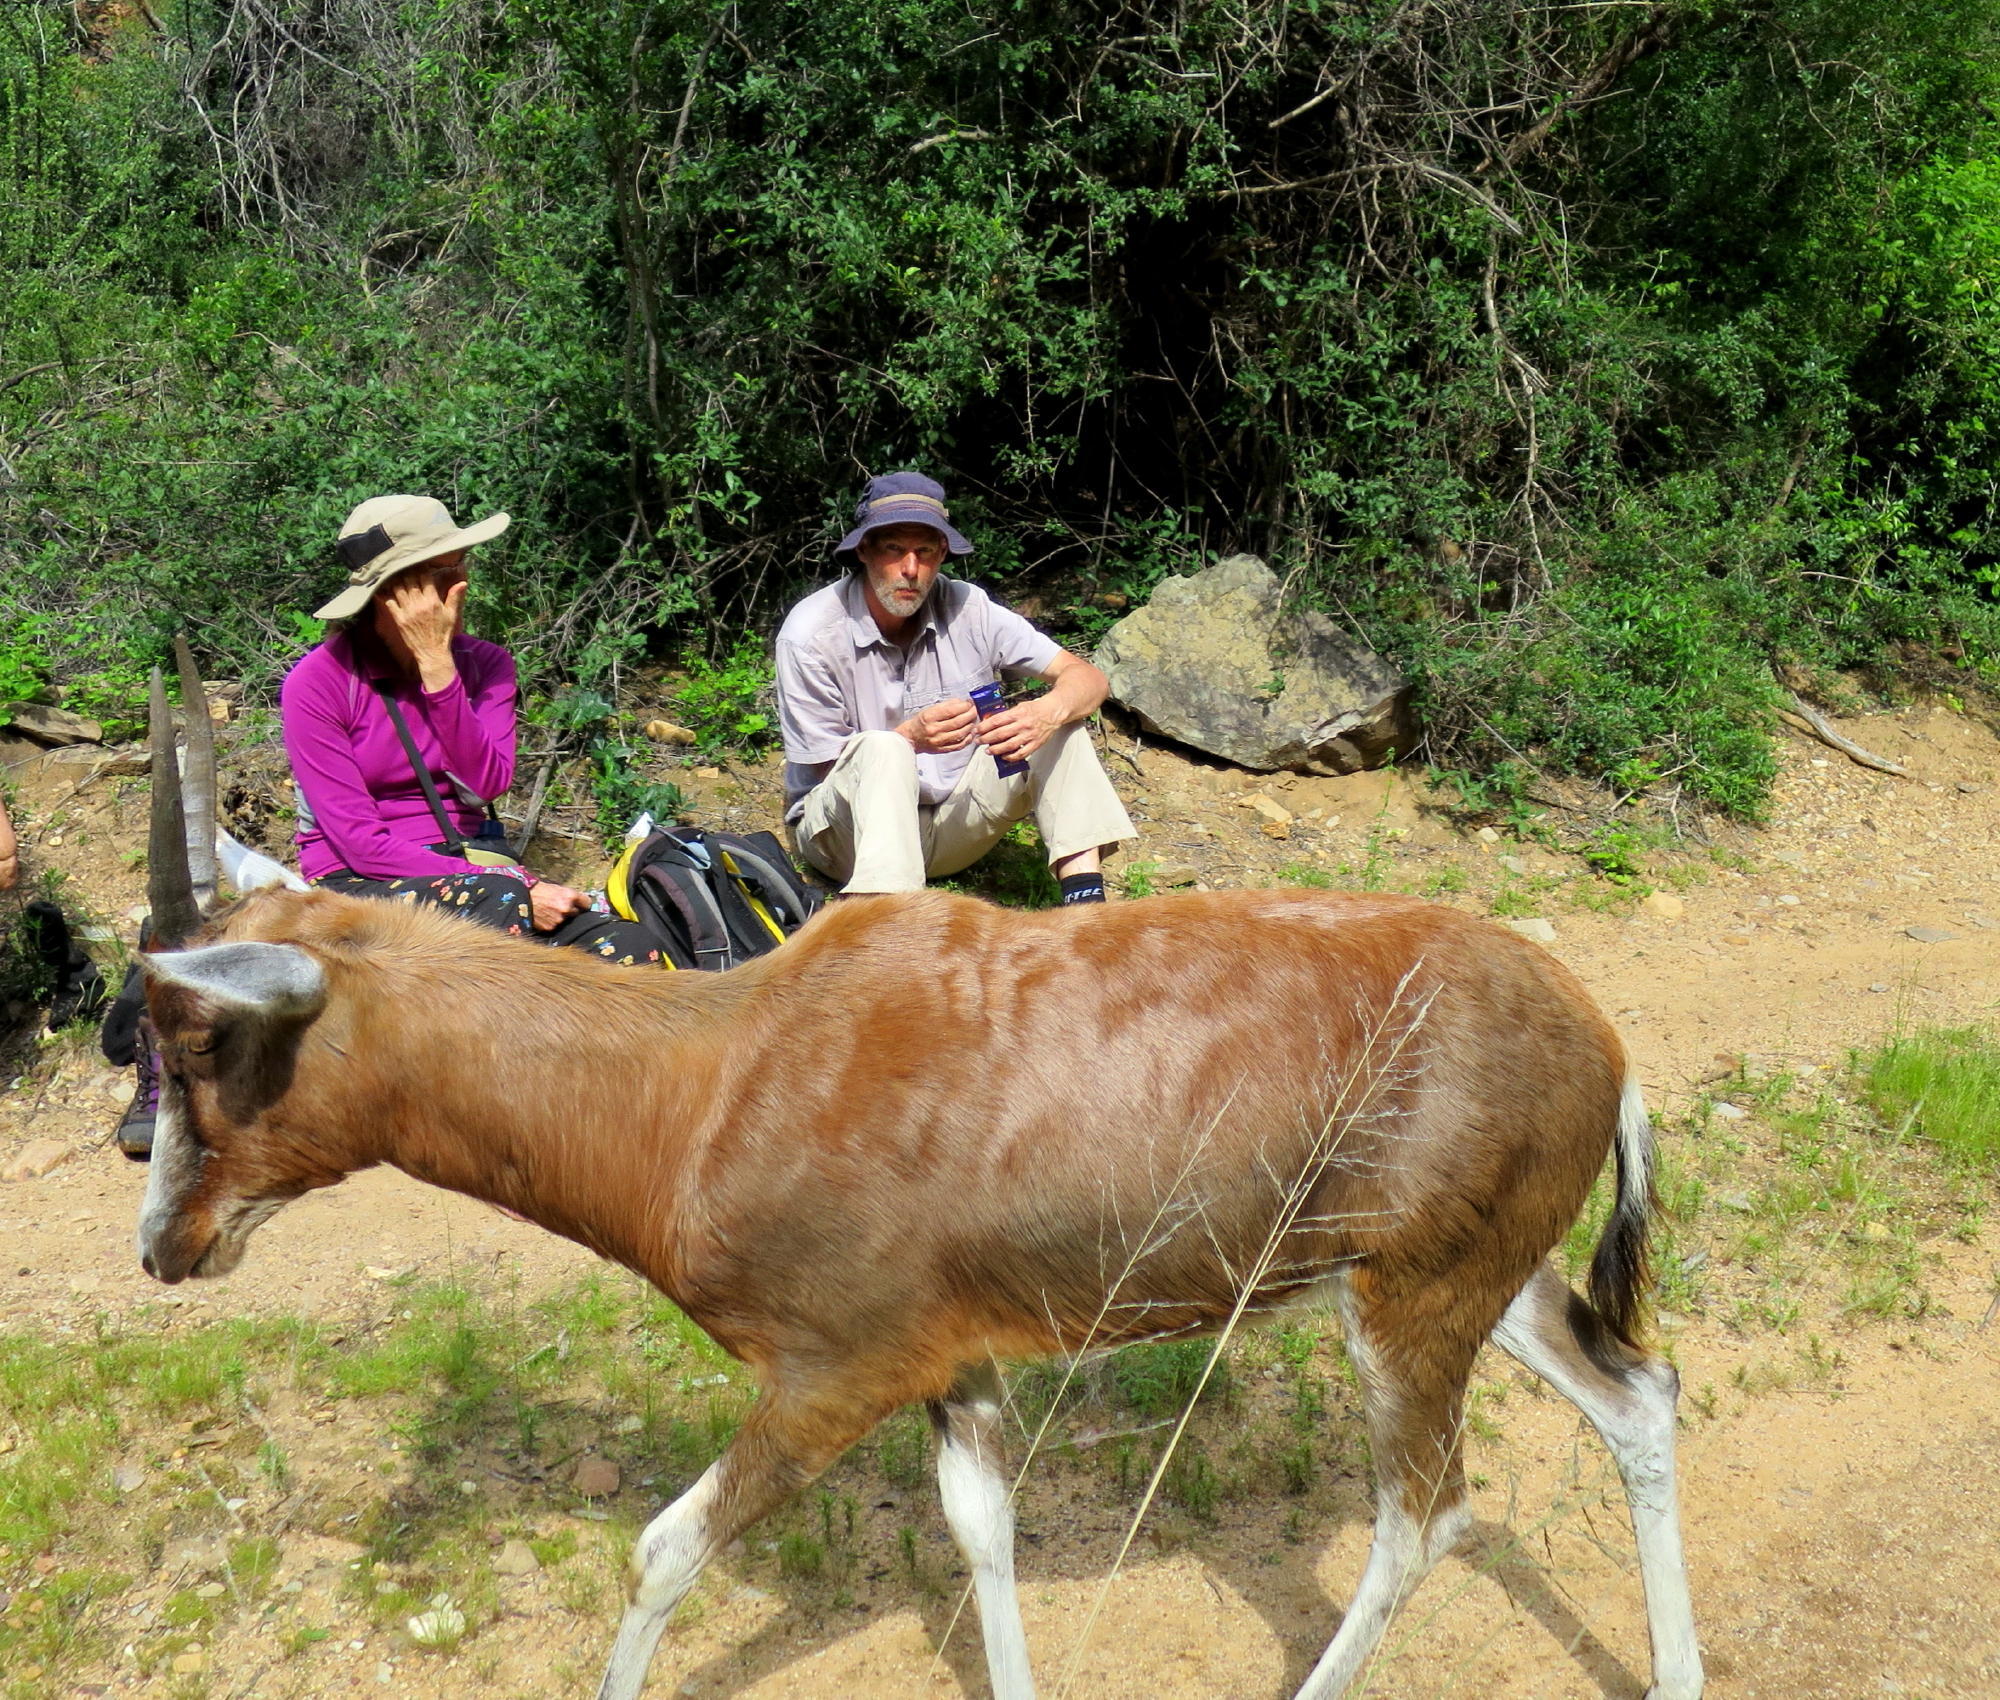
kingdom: Animalia
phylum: Chordata
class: Mammalia
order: Artiodactyla
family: Bovidae
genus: Damaliscus
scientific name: Damaliscus pygargus
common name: Bontebok
